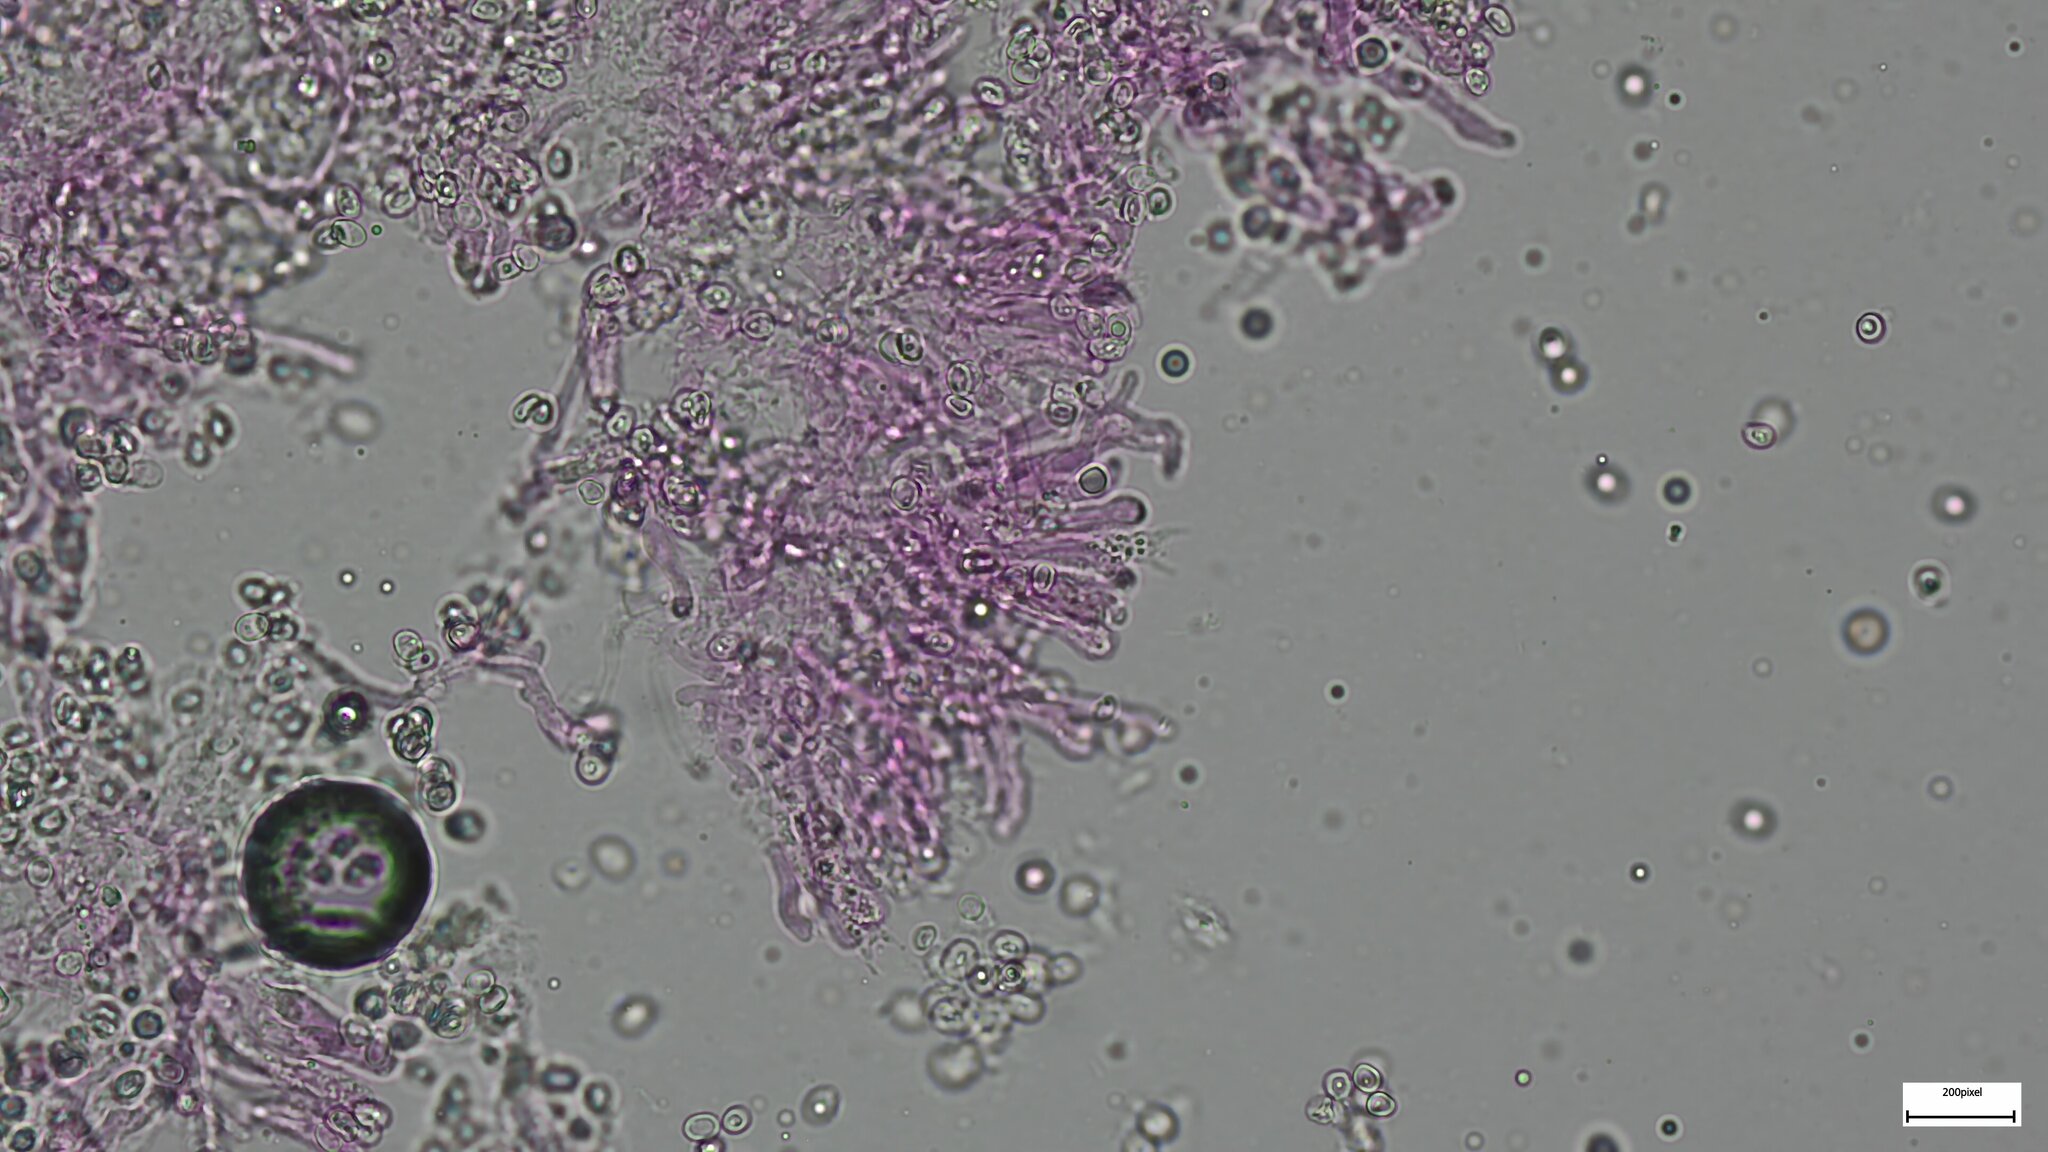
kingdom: Fungi
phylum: Basidiomycota
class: Agaricomycetes
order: Boletales
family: Hygrophoropsidaceae
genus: Leucogyrophana
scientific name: Leucogyrophana mollusca
